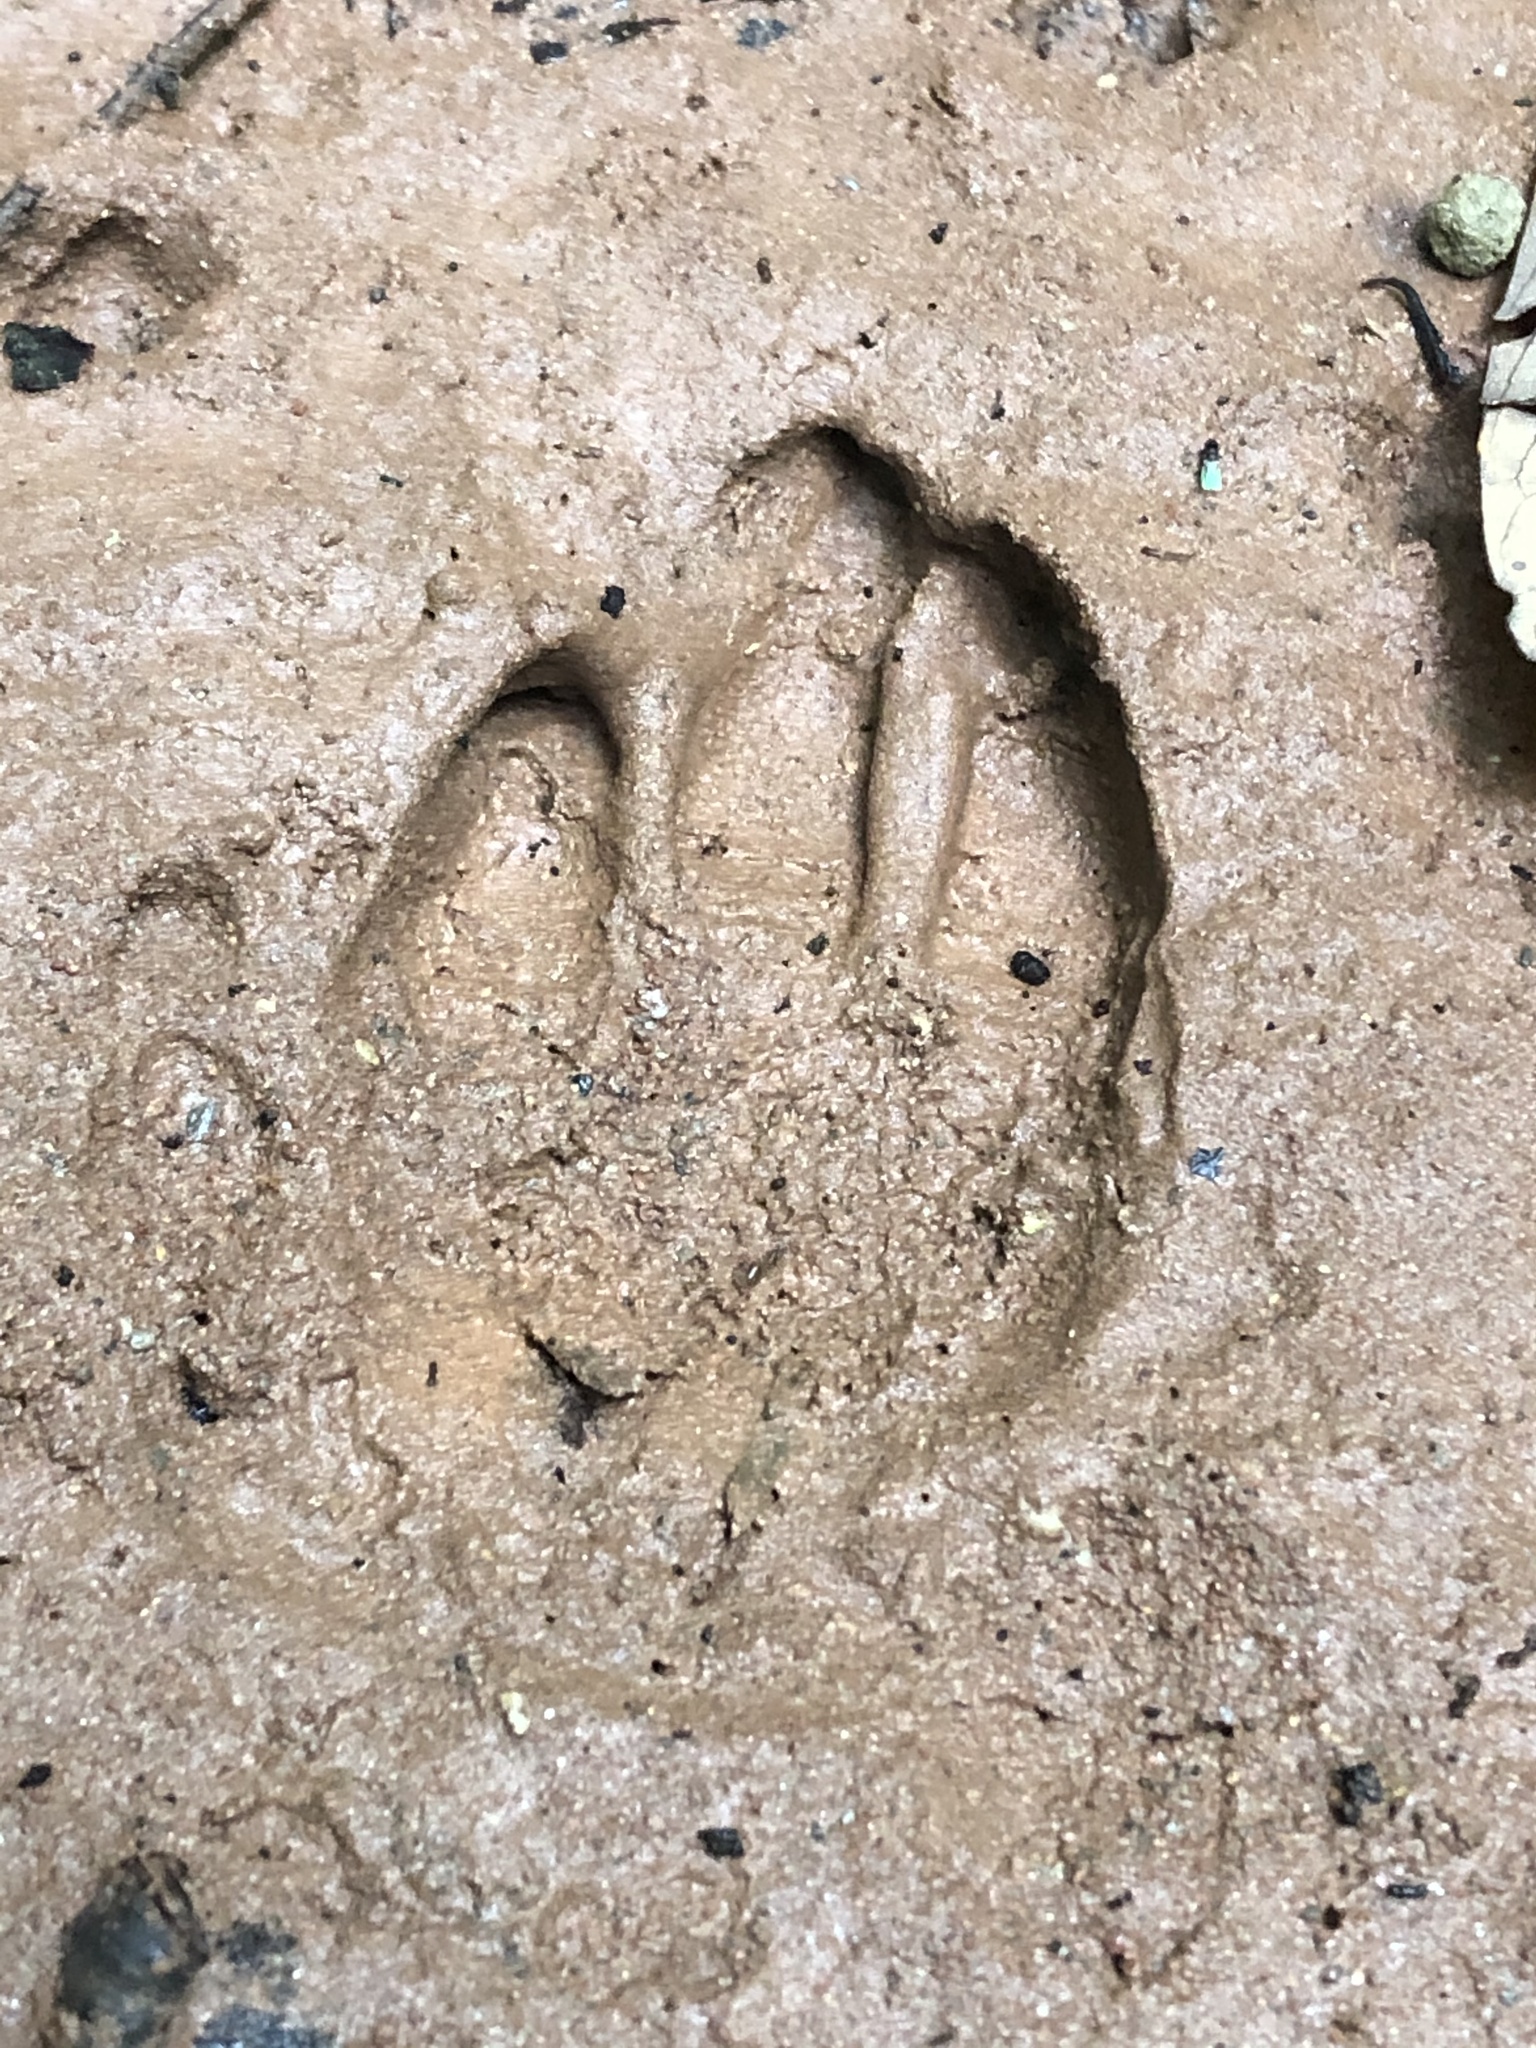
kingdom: Animalia
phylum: Chordata
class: Mammalia
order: Rodentia
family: Cuniculidae
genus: Cuniculus
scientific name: Cuniculus paca
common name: Lowland paca
